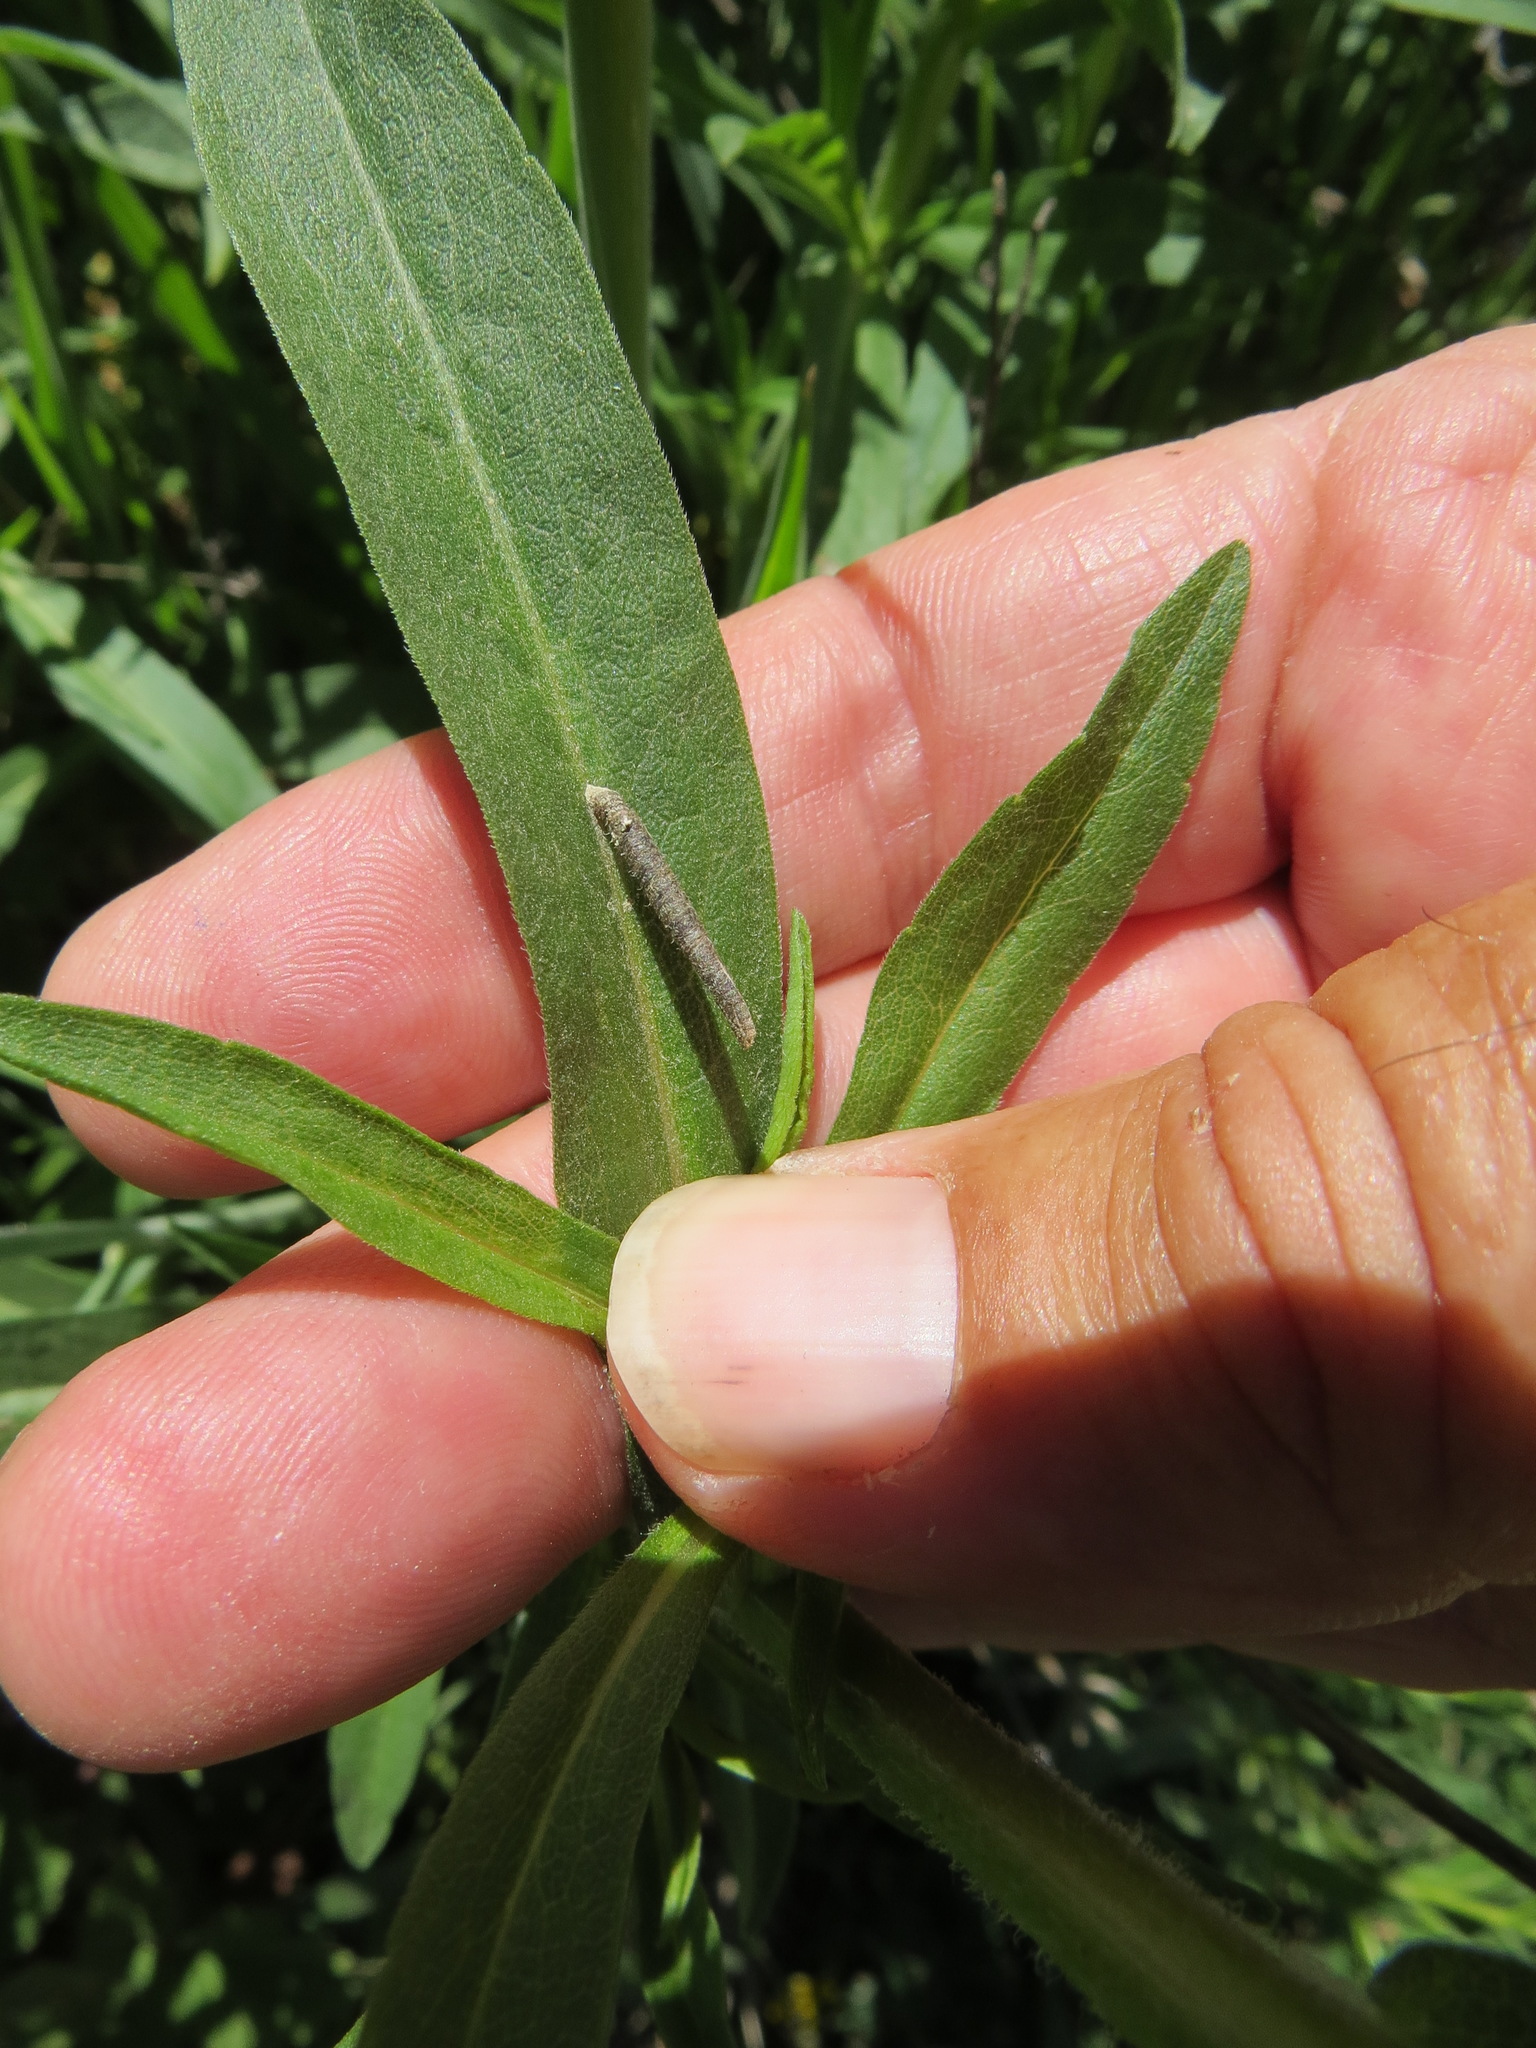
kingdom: Animalia
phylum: Arthropoda
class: Insecta
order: Lepidoptera
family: Coleophoridae
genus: Coleophora
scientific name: Coleophora
